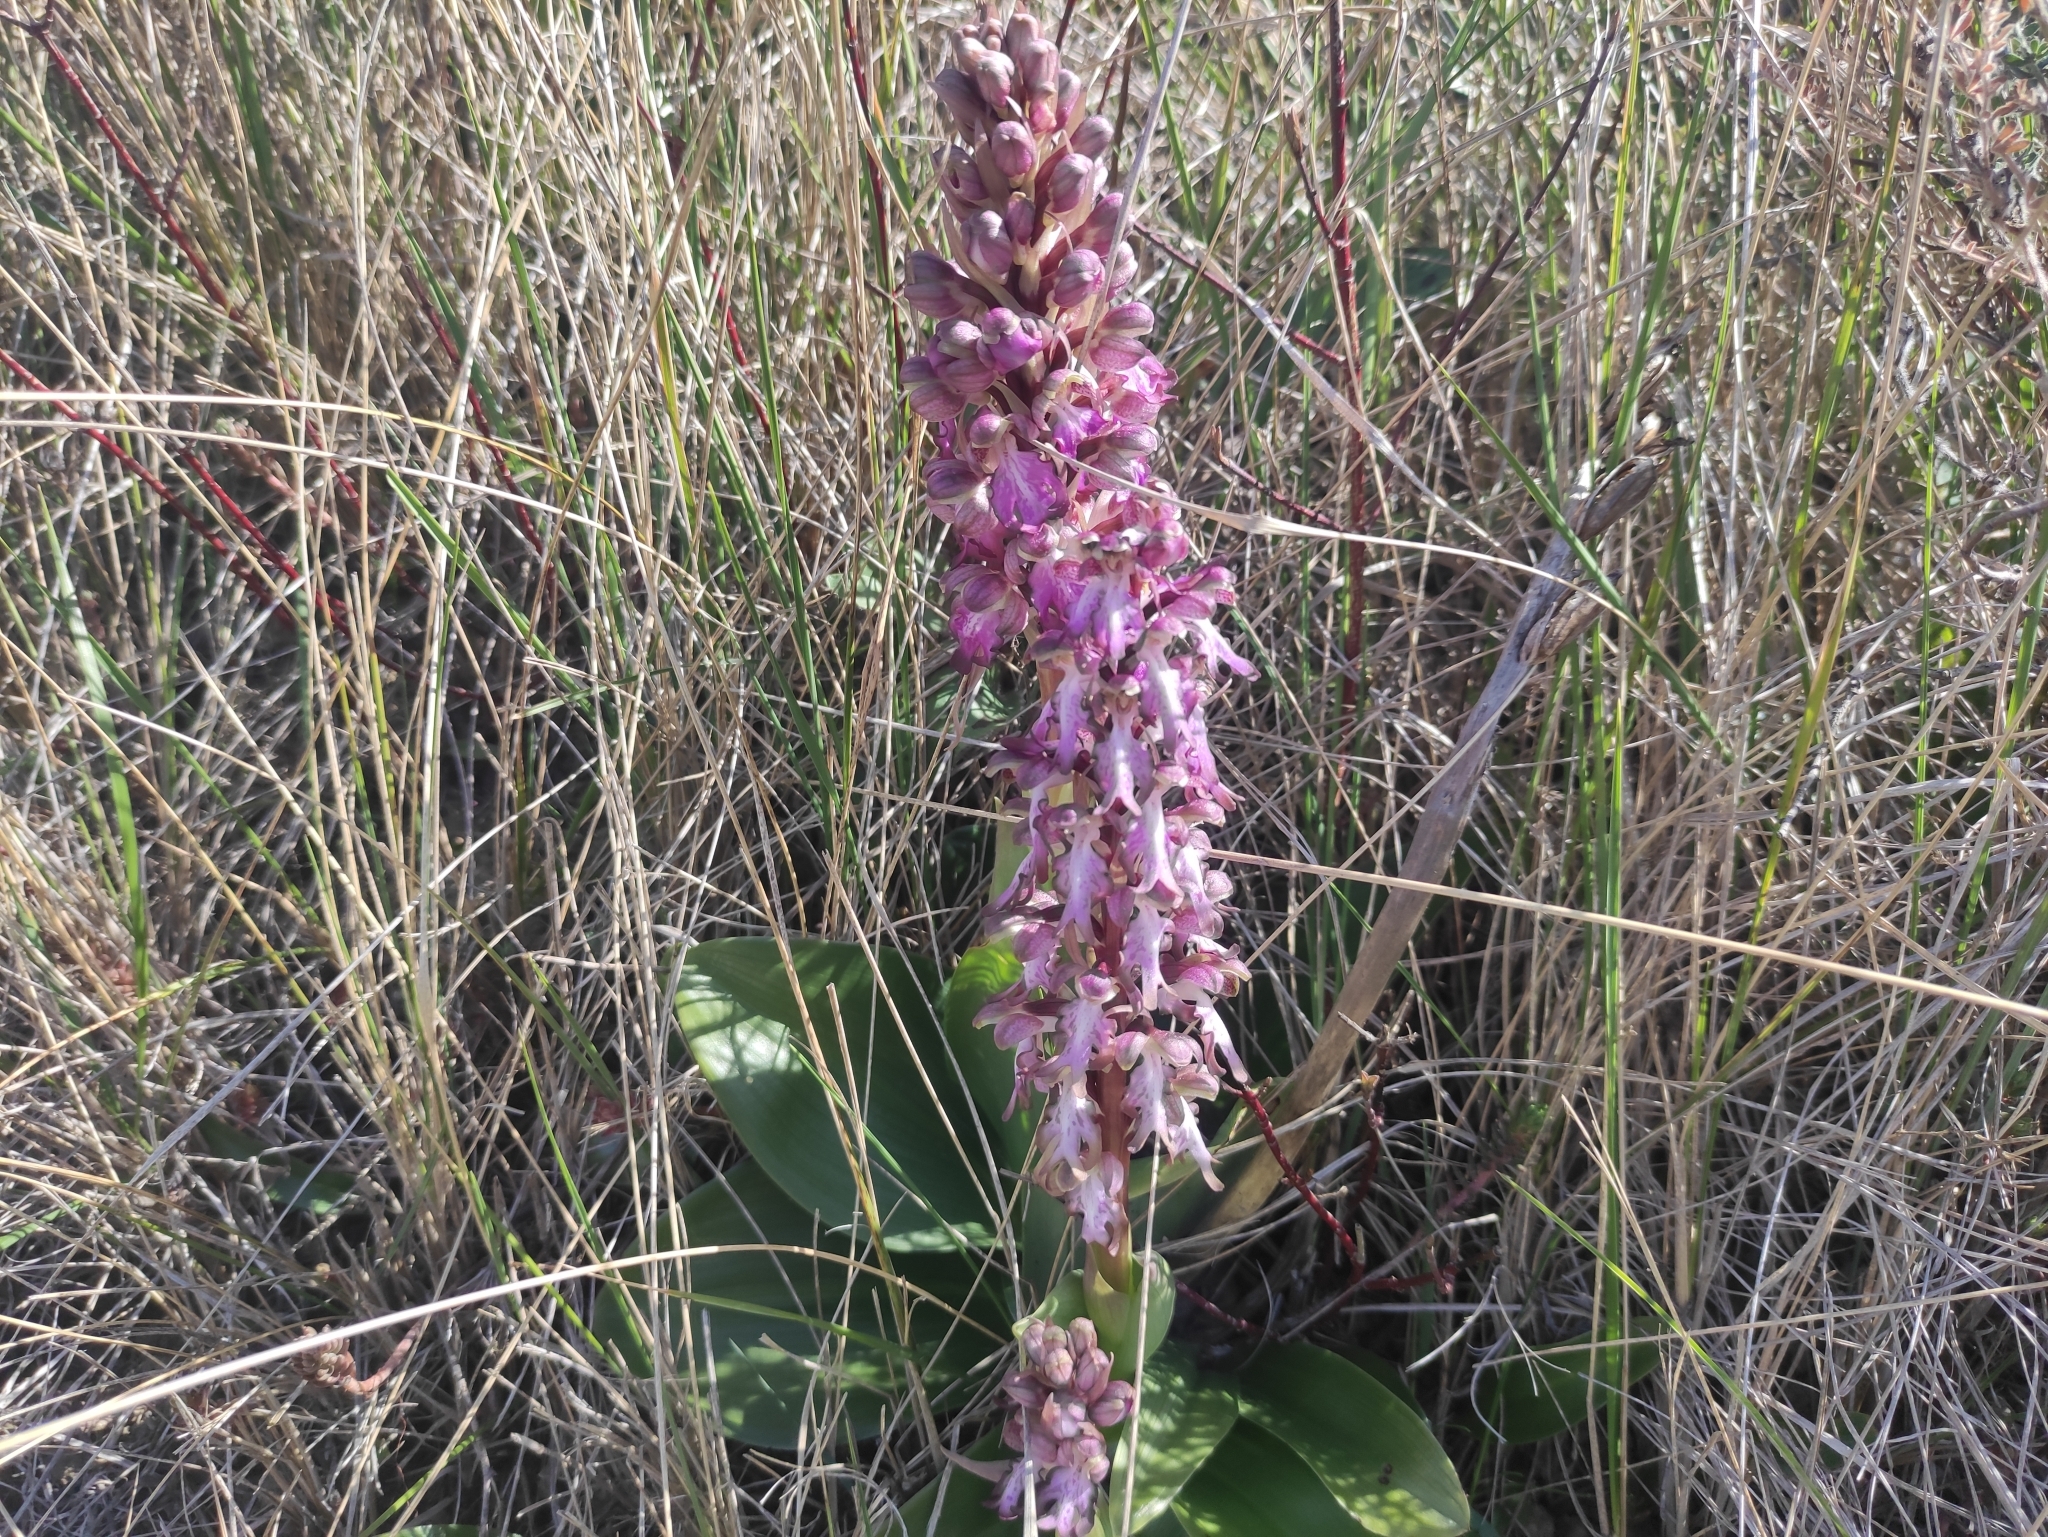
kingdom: Plantae
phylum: Tracheophyta
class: Liliopsida
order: Asparagales
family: Orchidaceae
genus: Himantoglossum
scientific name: Himantoglossum robertianum
